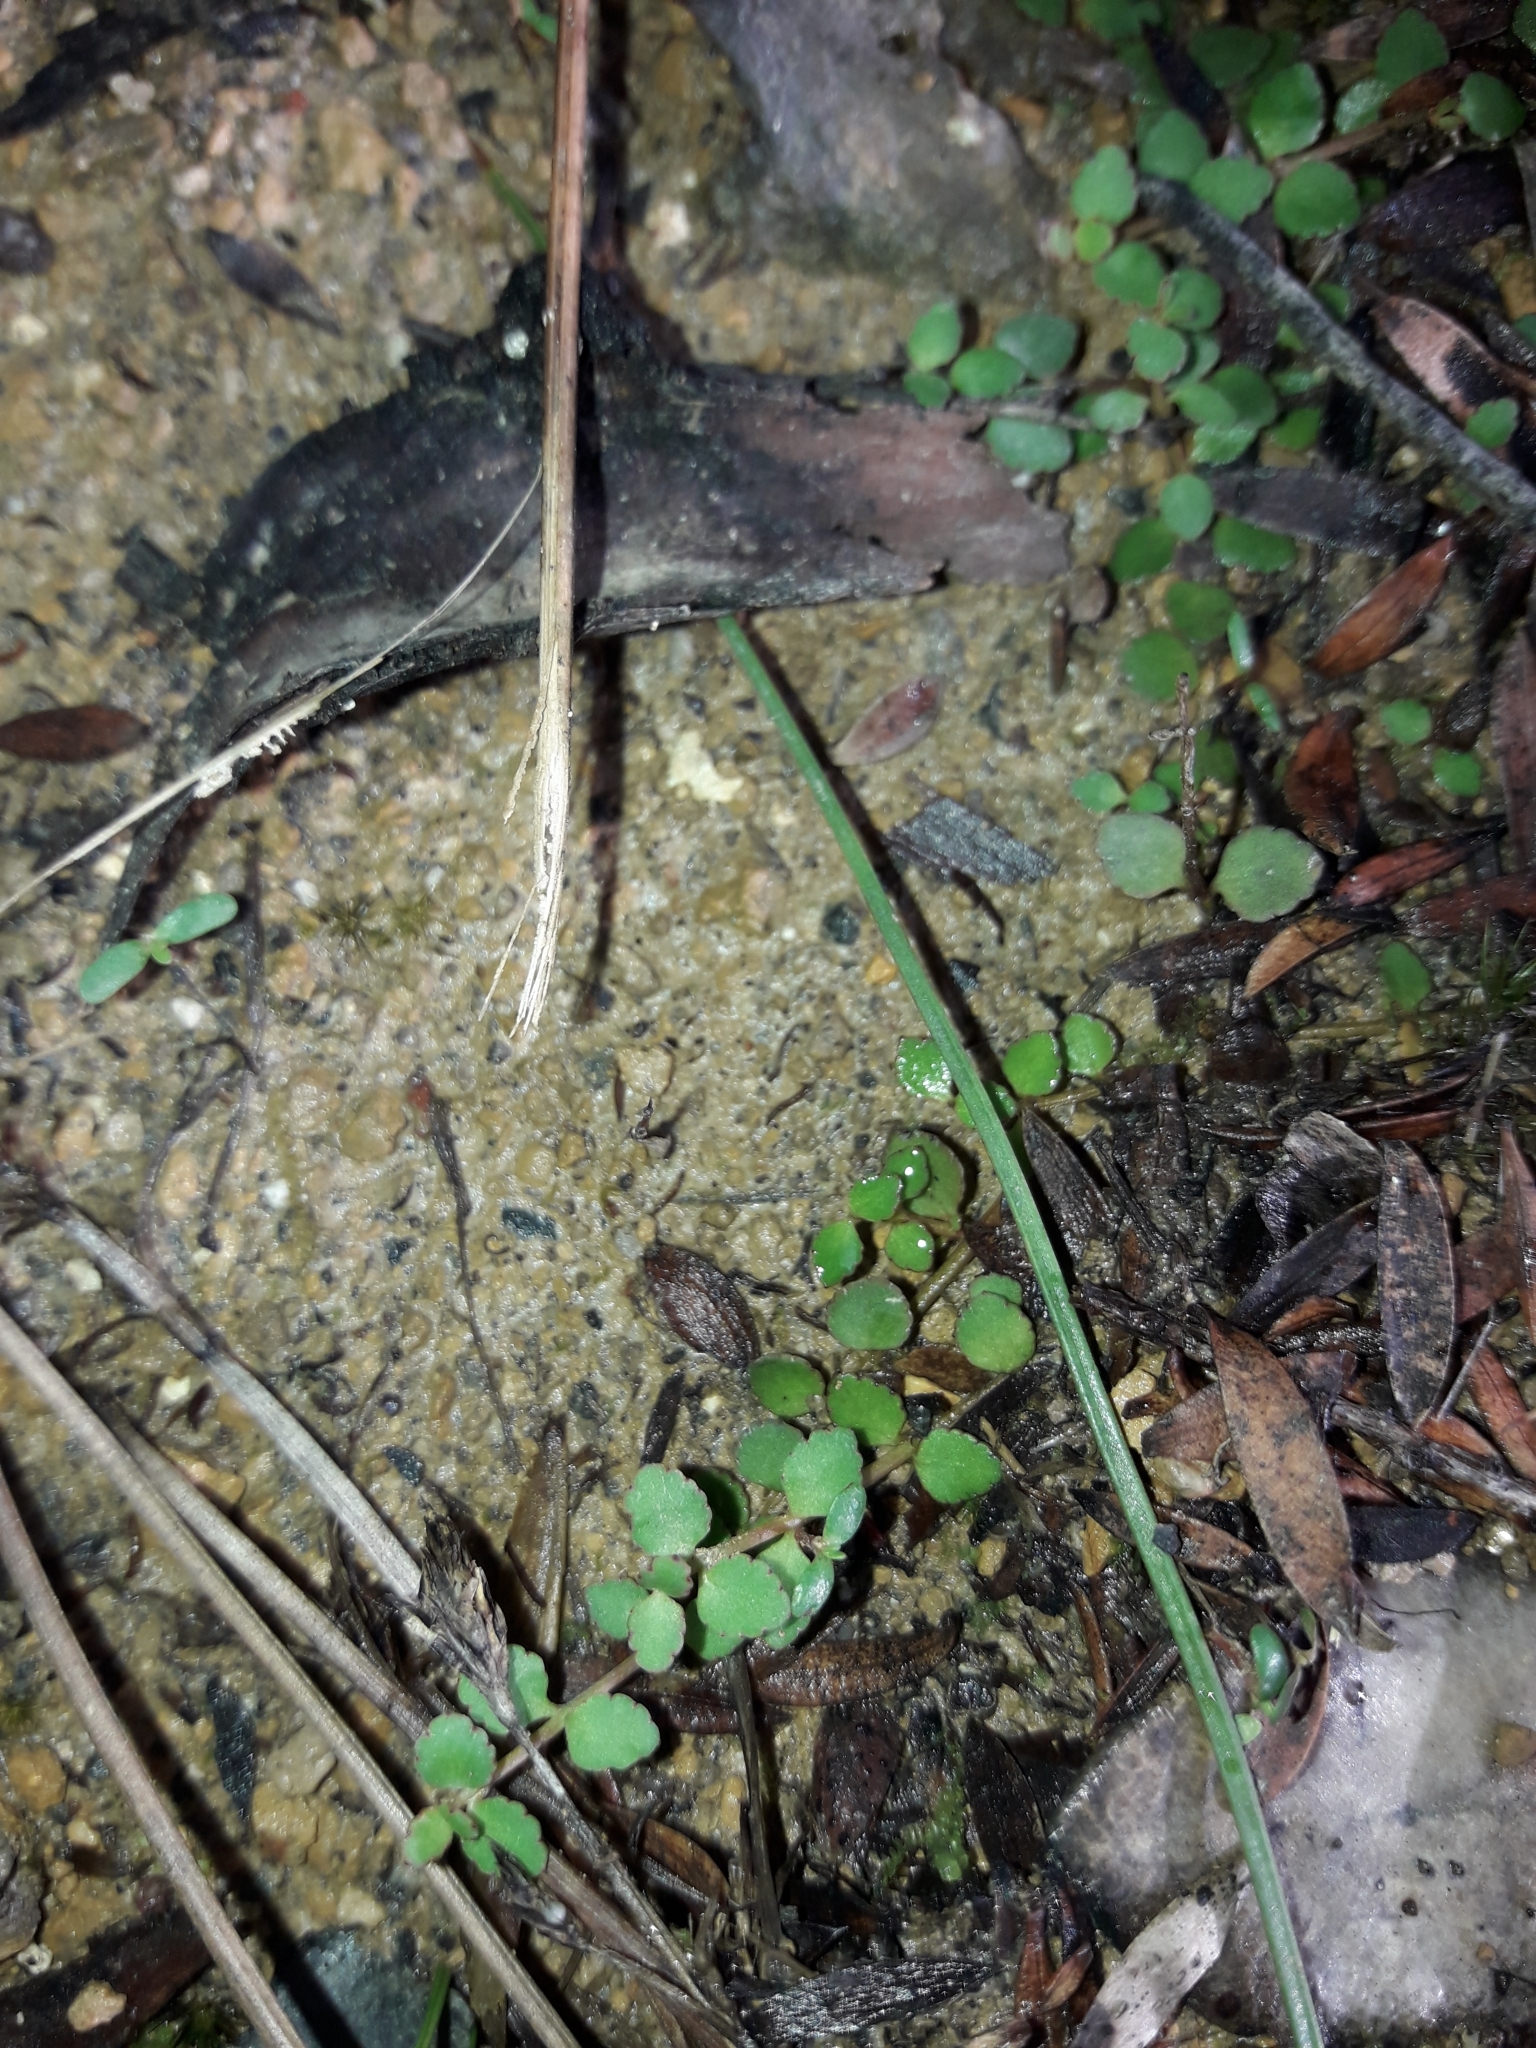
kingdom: Plantae
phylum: Tracheophyta
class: Magnoliopsida
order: Saxifragales
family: Haloragaceae
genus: Gonocarpus
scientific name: Gonocarpus micranthus
